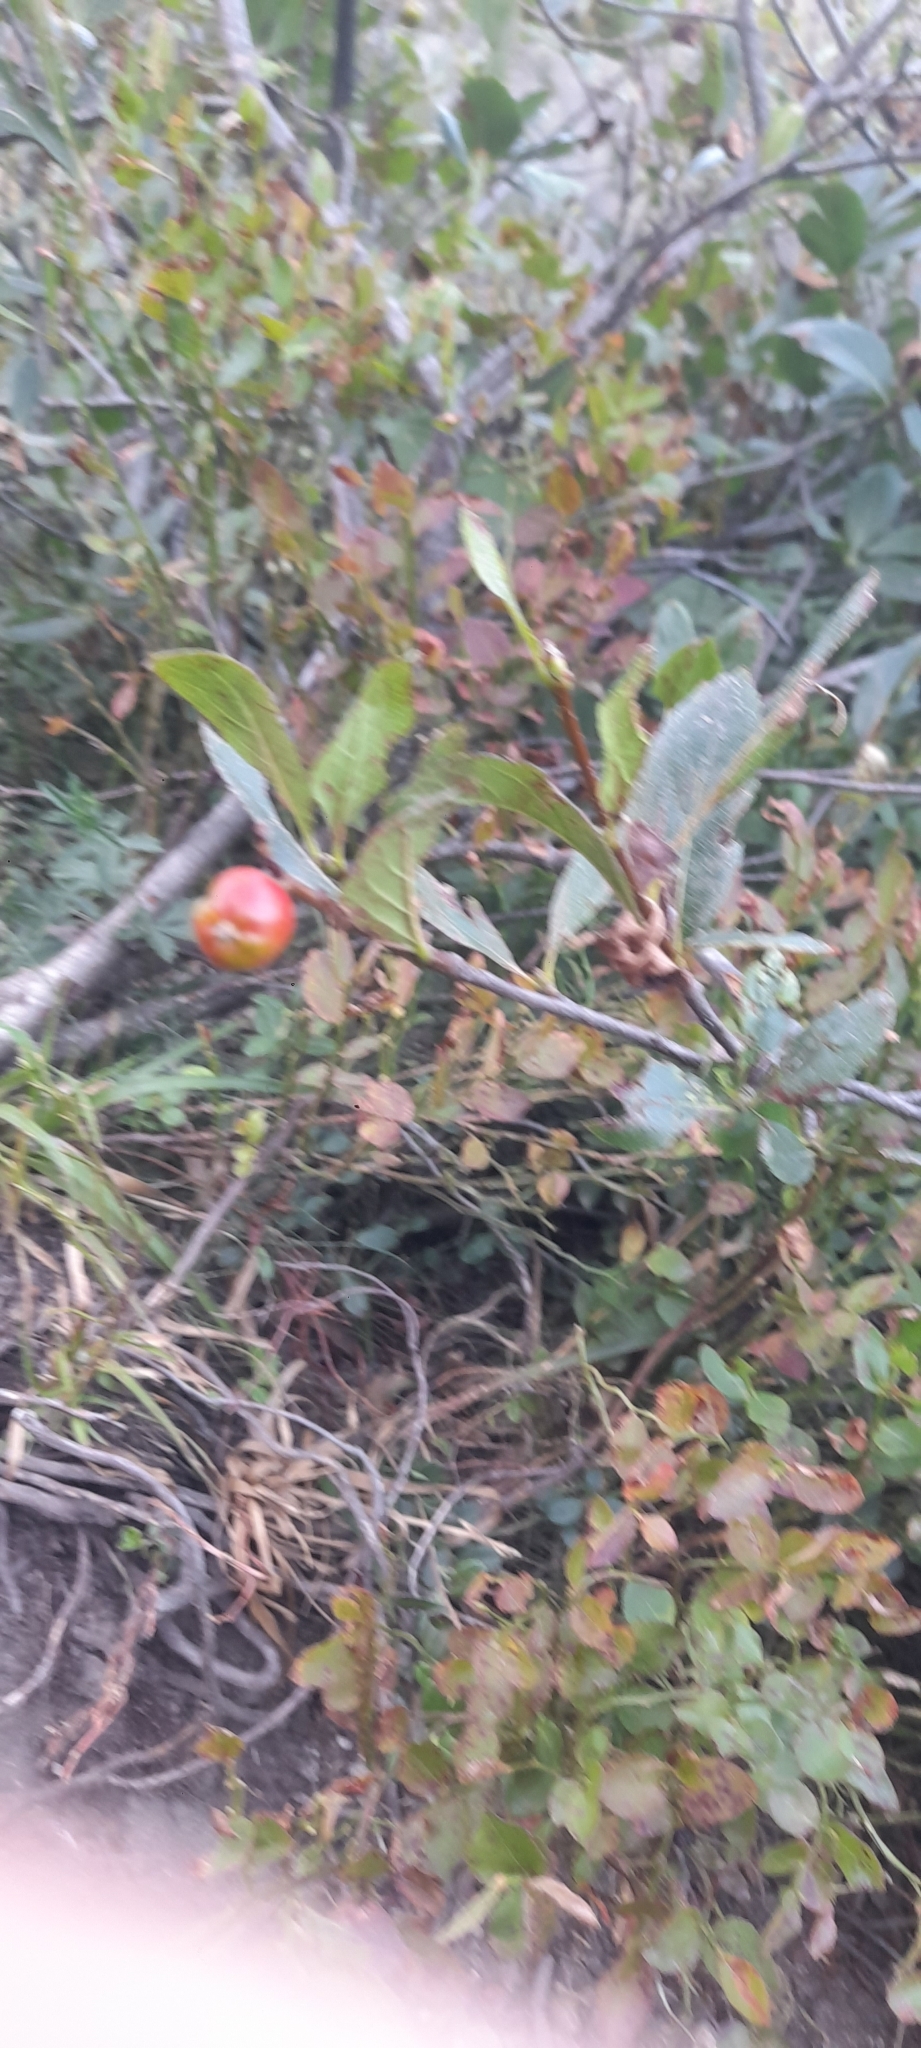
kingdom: Plantae
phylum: Tracheophyta
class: Magnoliopsida
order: Rosales
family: Rosaceae
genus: Chamaemespilus
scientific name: Chamaemespilus alpina
